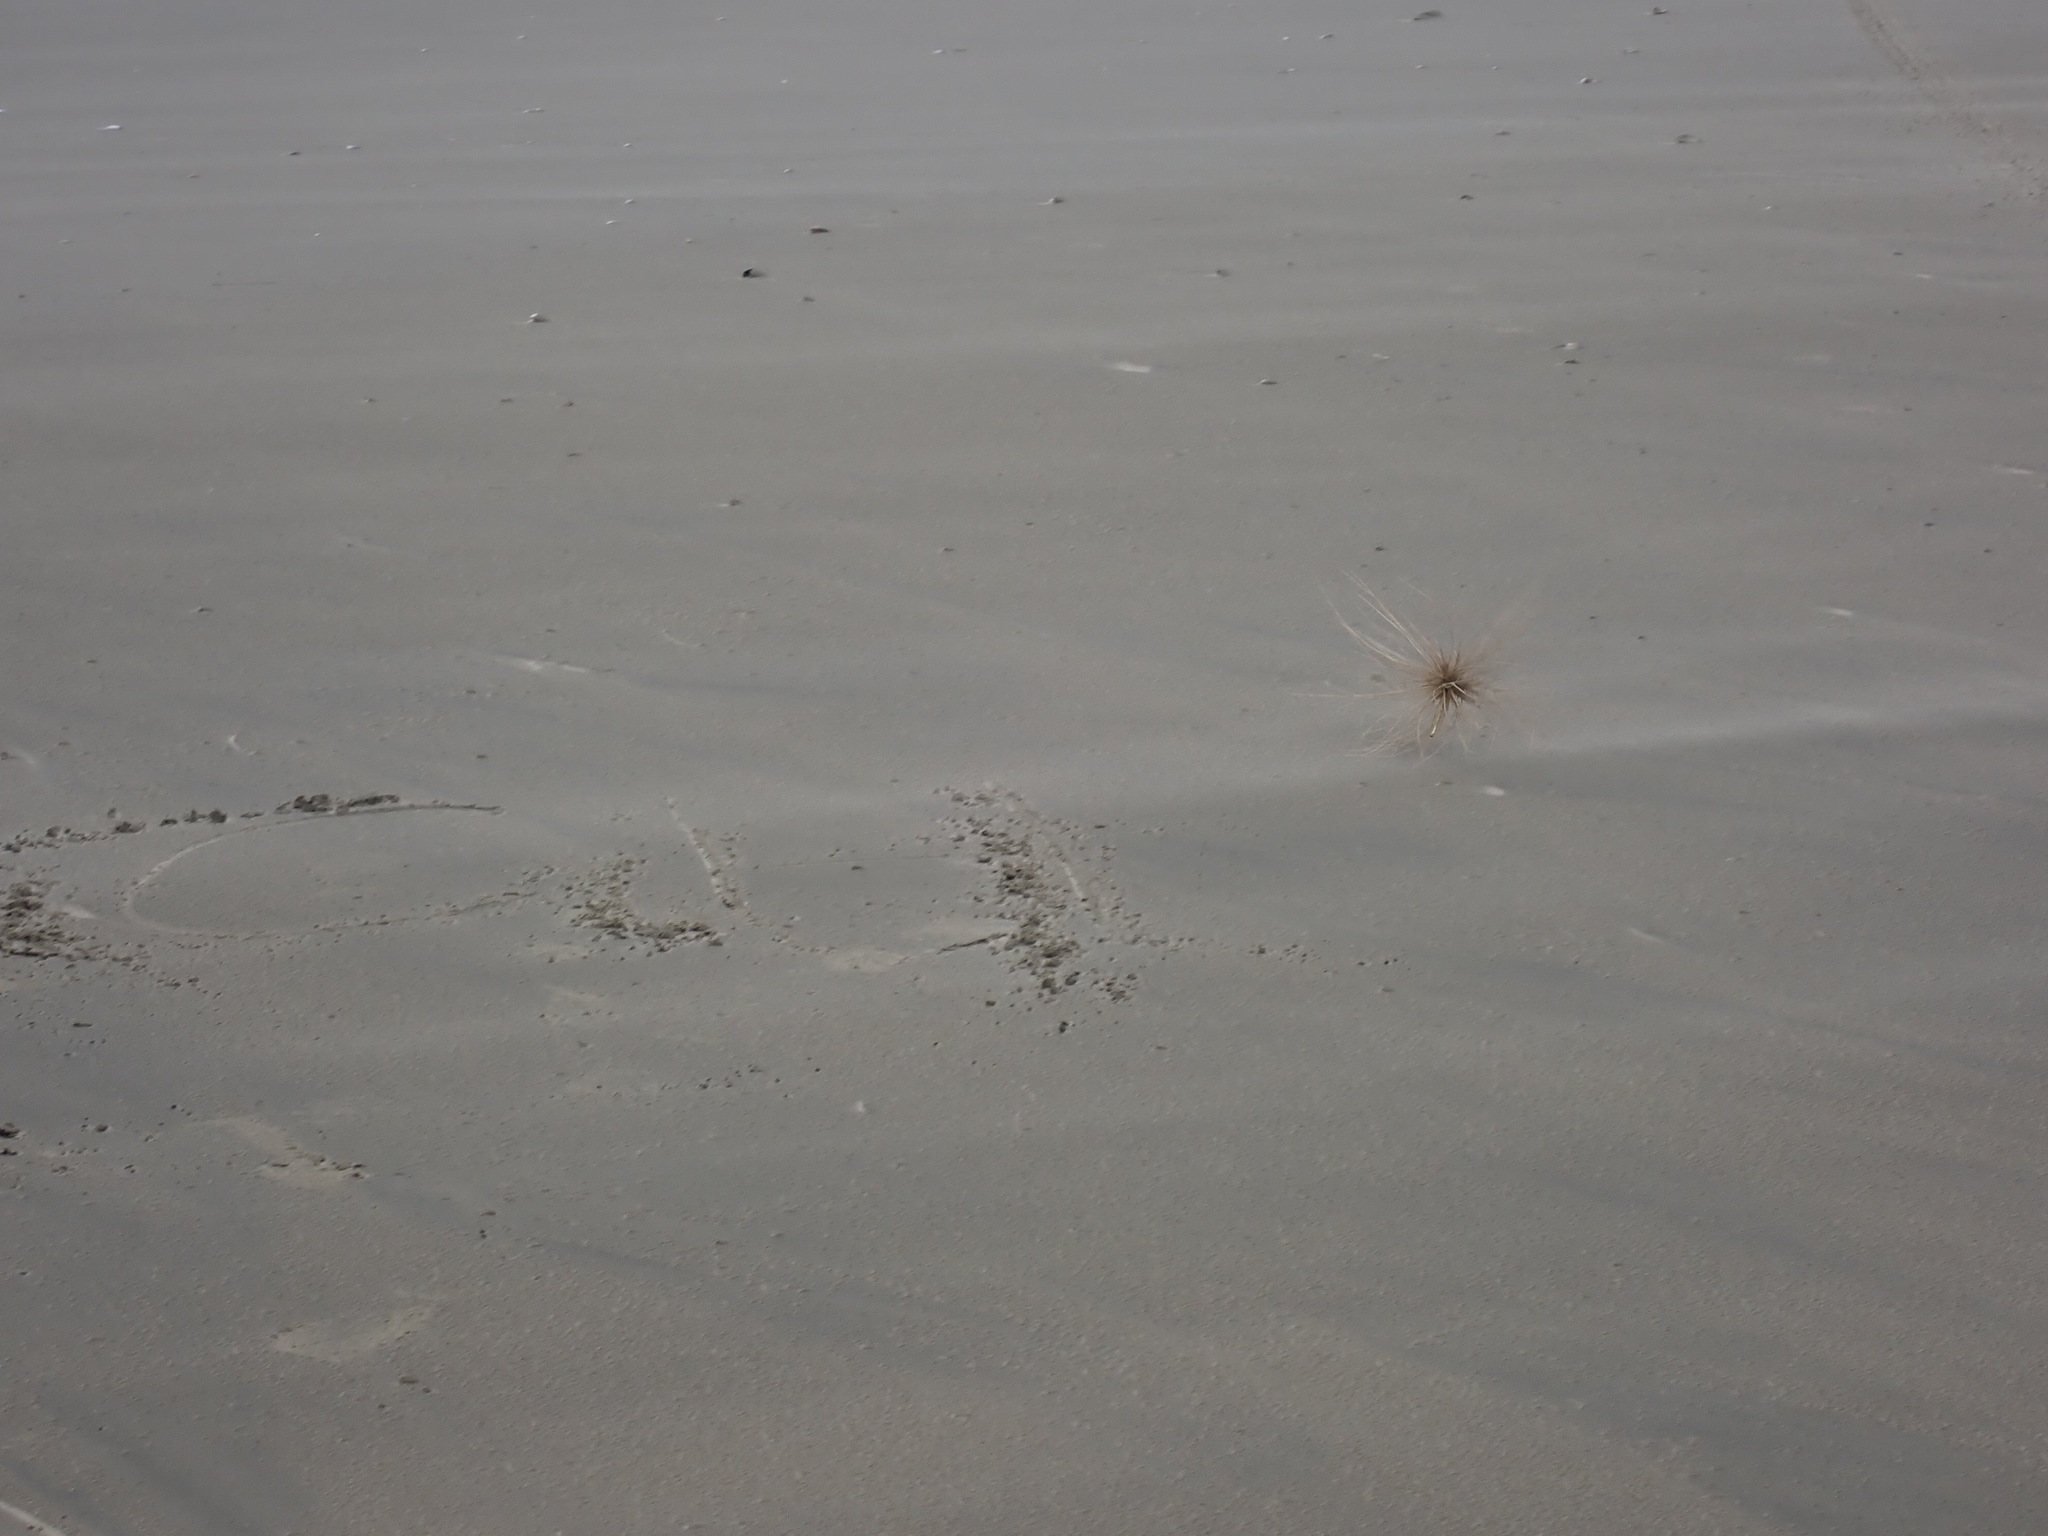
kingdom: Plantae
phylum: Tracheophyta
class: Liliopsida
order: Poales
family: Poaceae
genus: Spinifex
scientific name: Spinifex sericeus
